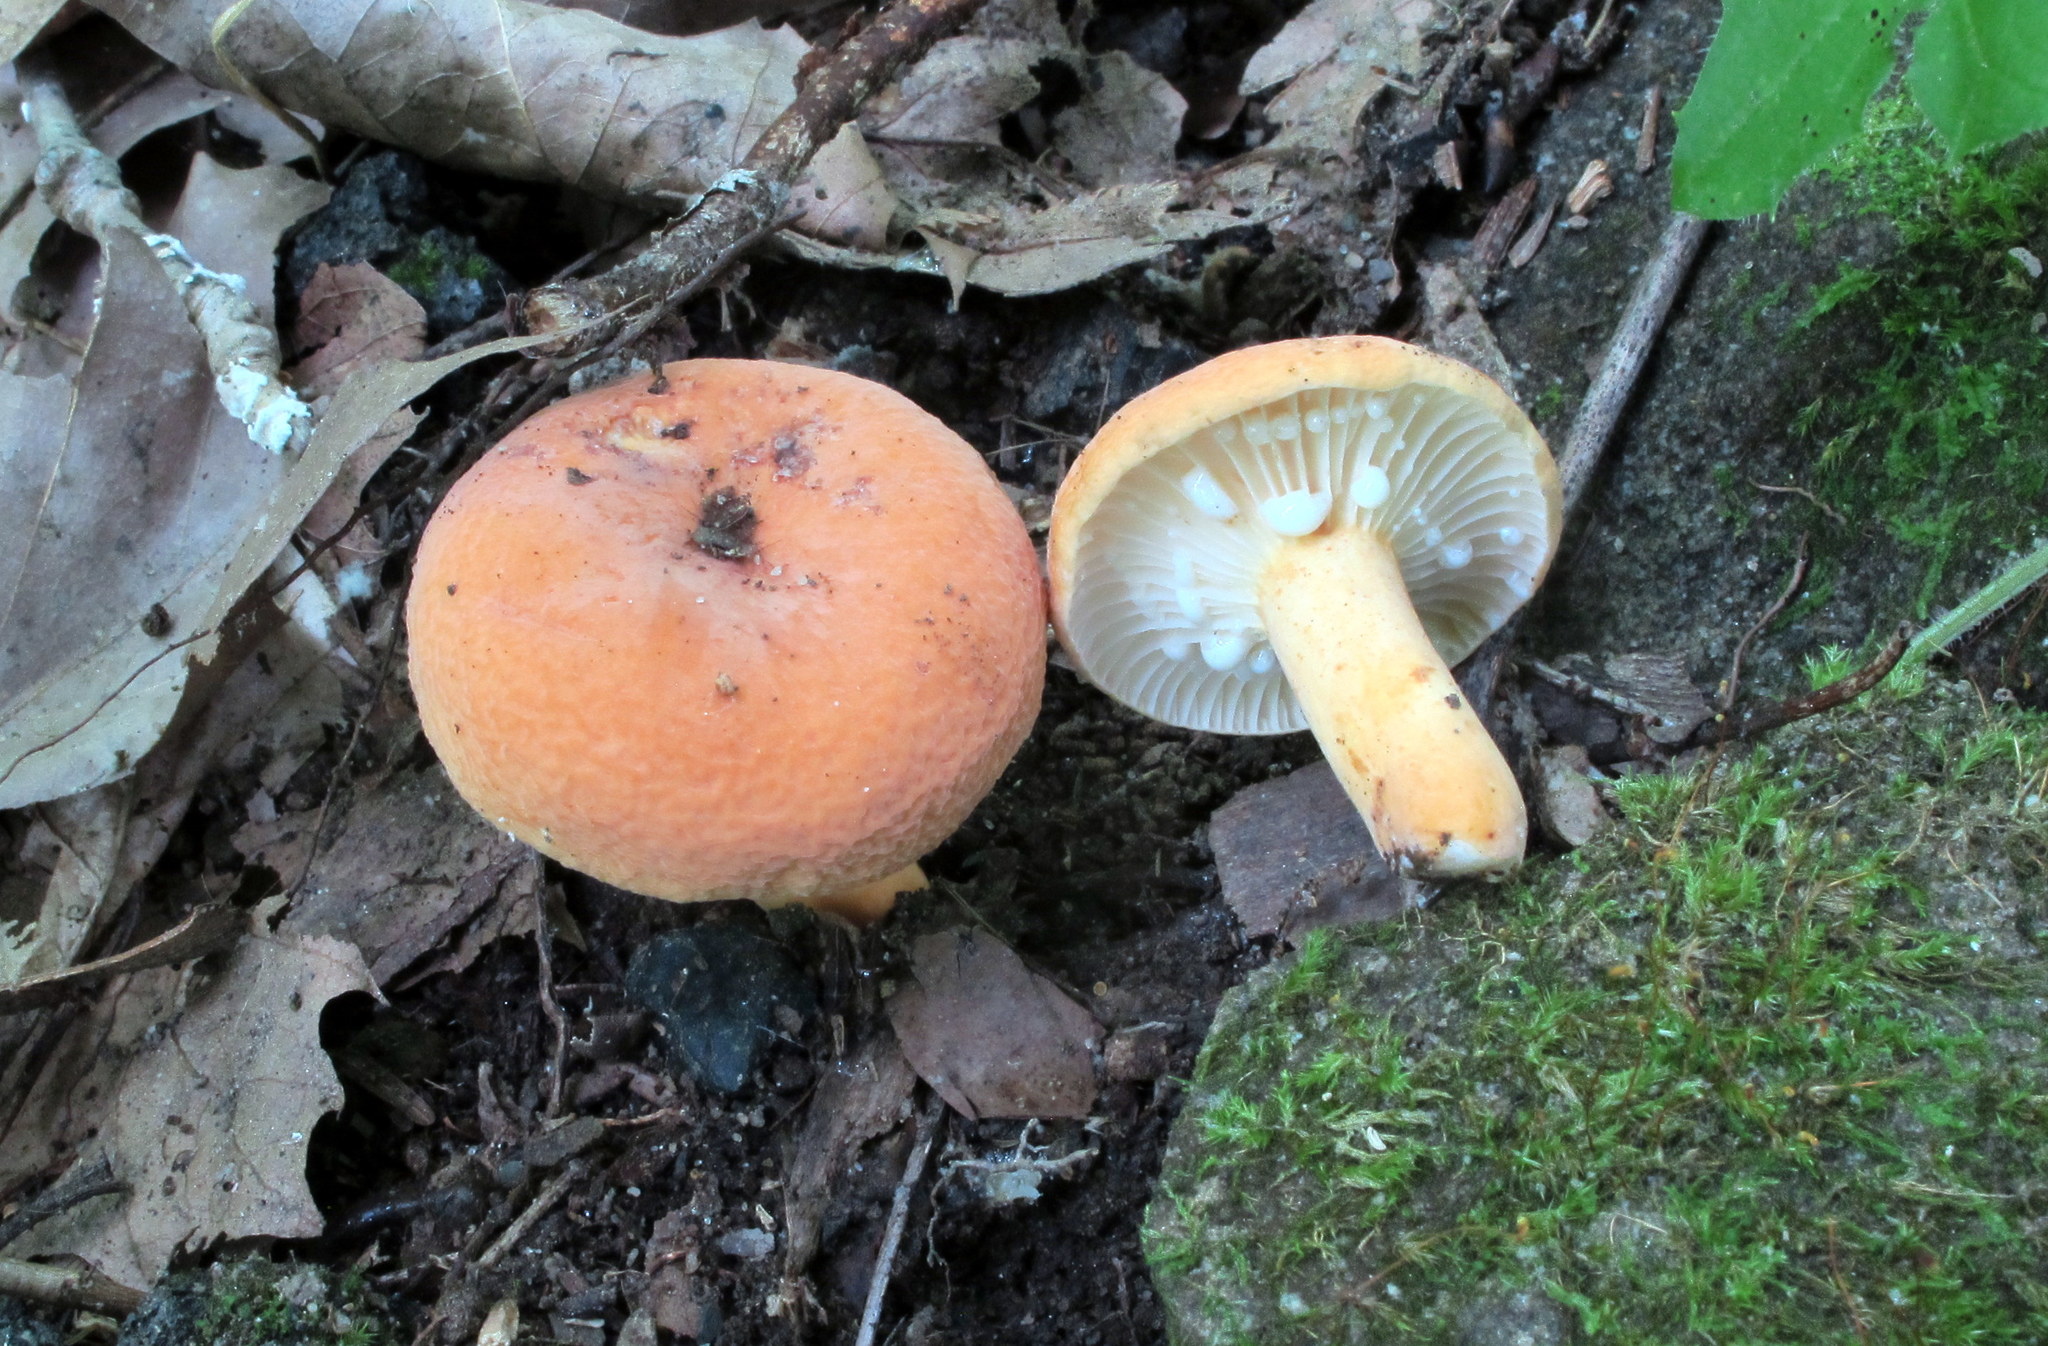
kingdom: Fungi
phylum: Basidiomycota
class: Agaricomycetes
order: Russulales
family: Russulaceae
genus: Lactarius
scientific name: Lactarius hygrophoroides
